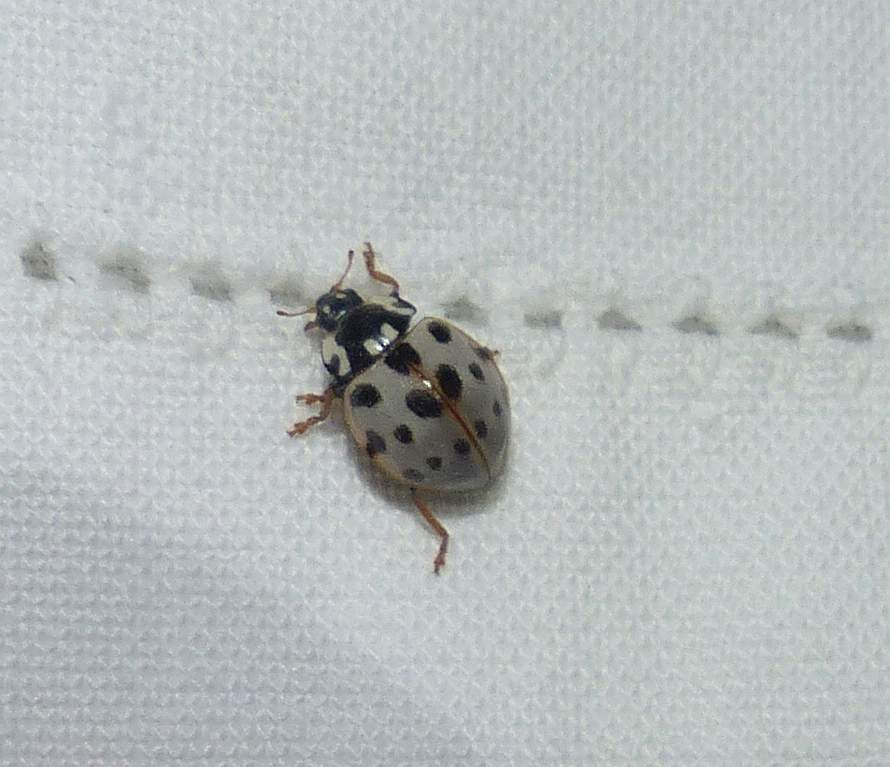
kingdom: Animalia
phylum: Arthropoda
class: Insecta
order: Coleoptera
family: Coccinellidae
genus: Anatis
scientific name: Anatis labiculata
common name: Fifteen-spotted lady beetle
